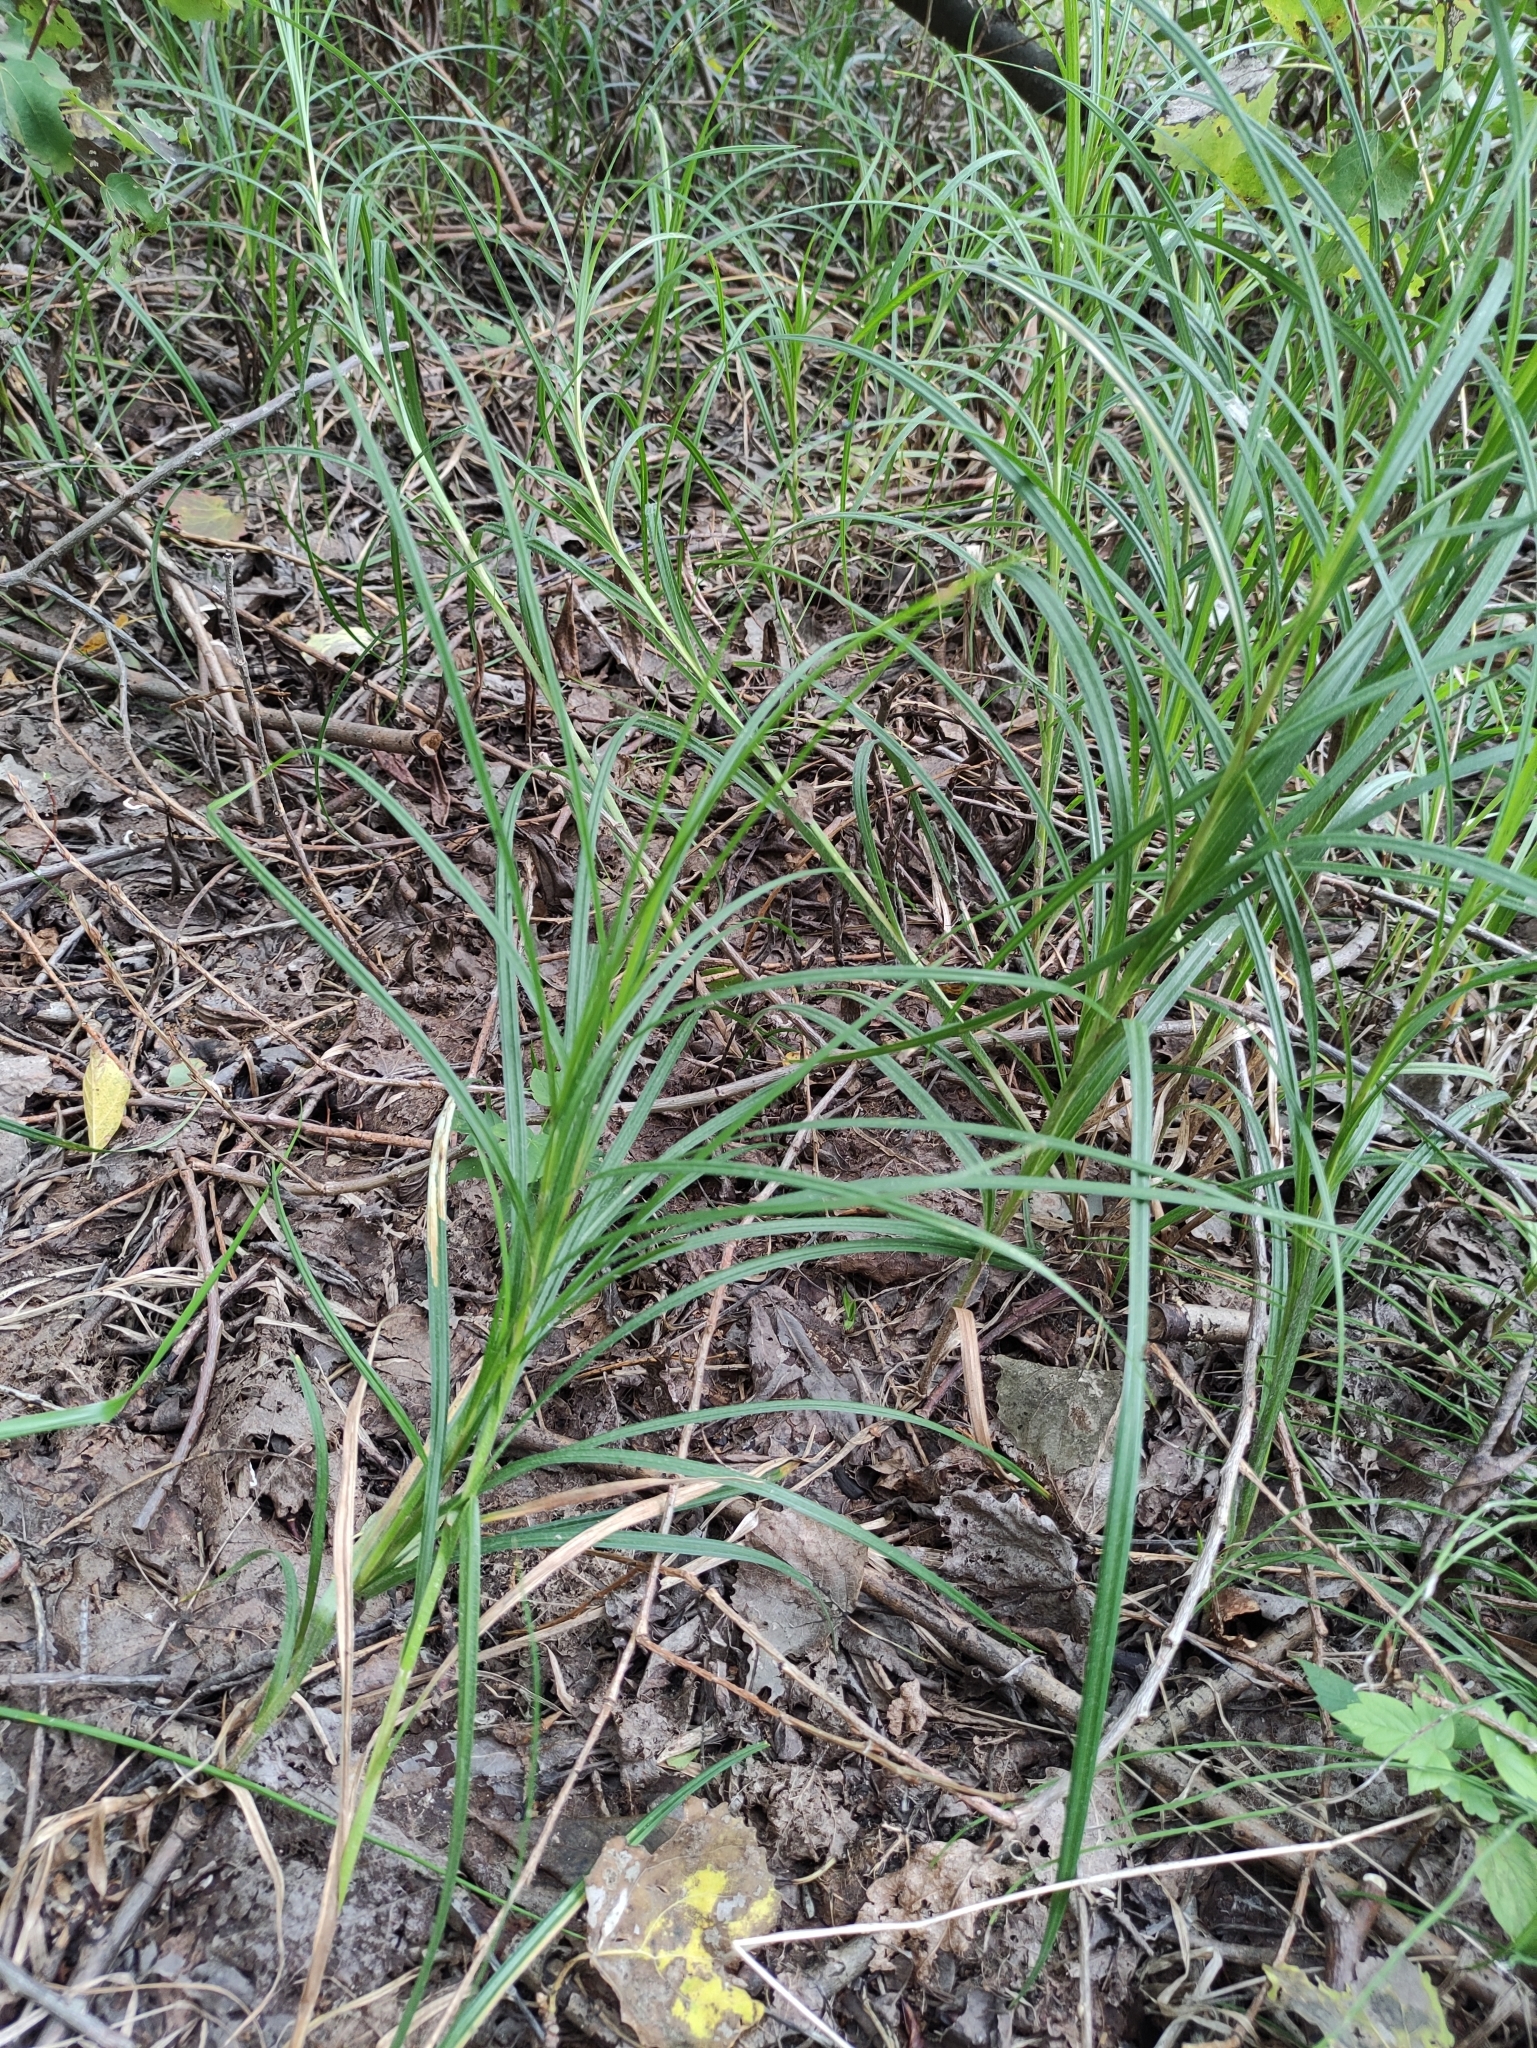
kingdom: Plantae
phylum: Tracheophyta
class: Liliopsida
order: Poales
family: Cyperaceae
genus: Carex
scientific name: Carex hirta
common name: Hairy sedge
